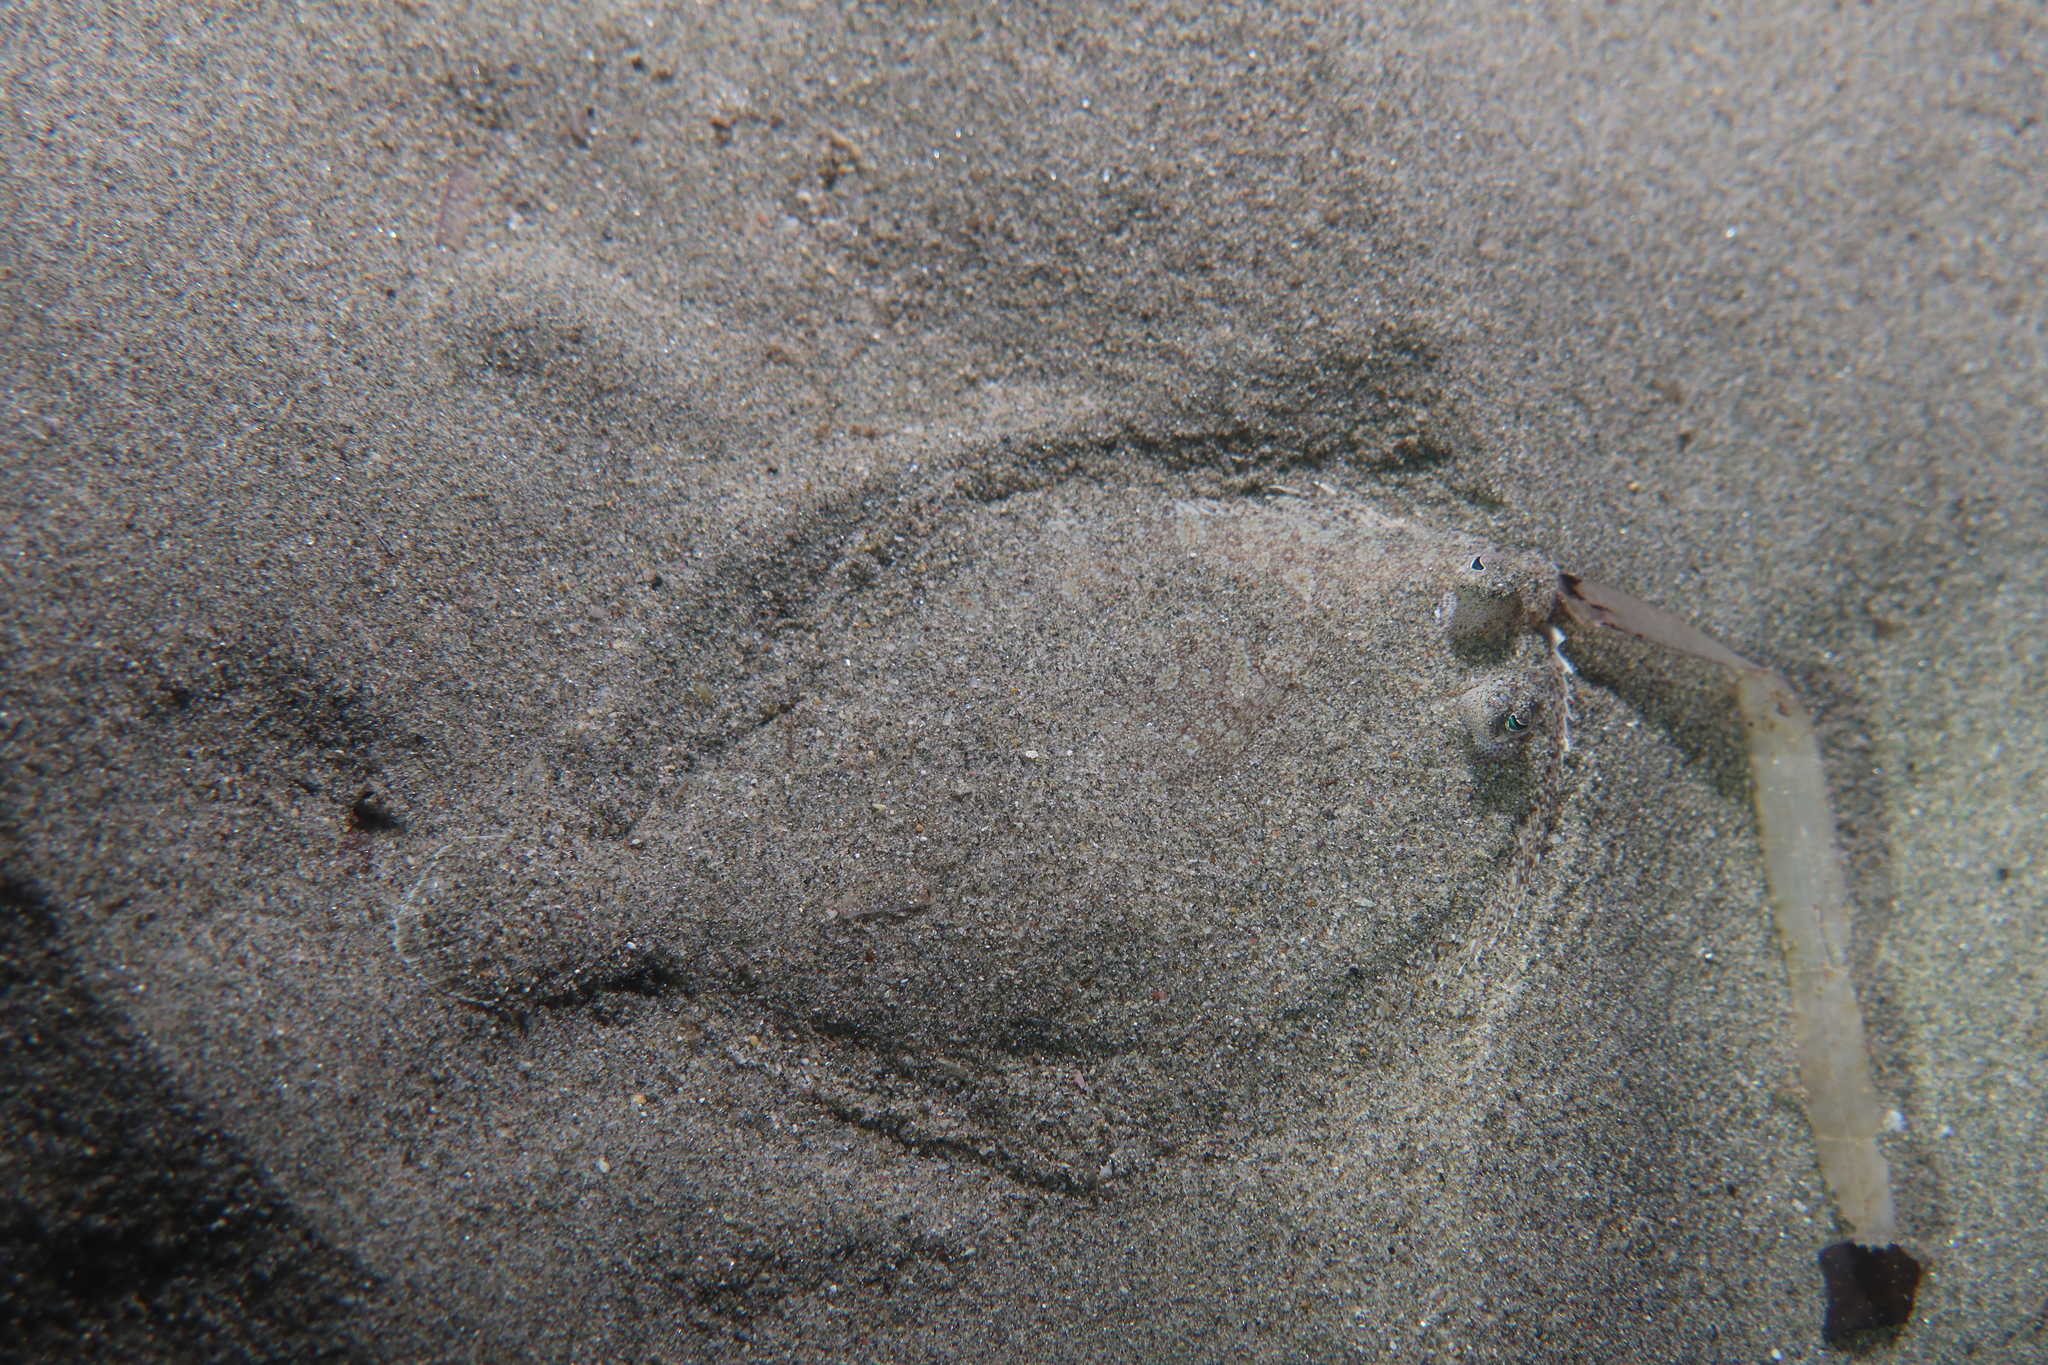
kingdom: Animalia
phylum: Chordata
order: Pleuronectiformes
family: Bothidae
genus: Bothus
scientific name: Bothus podas
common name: Wide-eyed flounder
